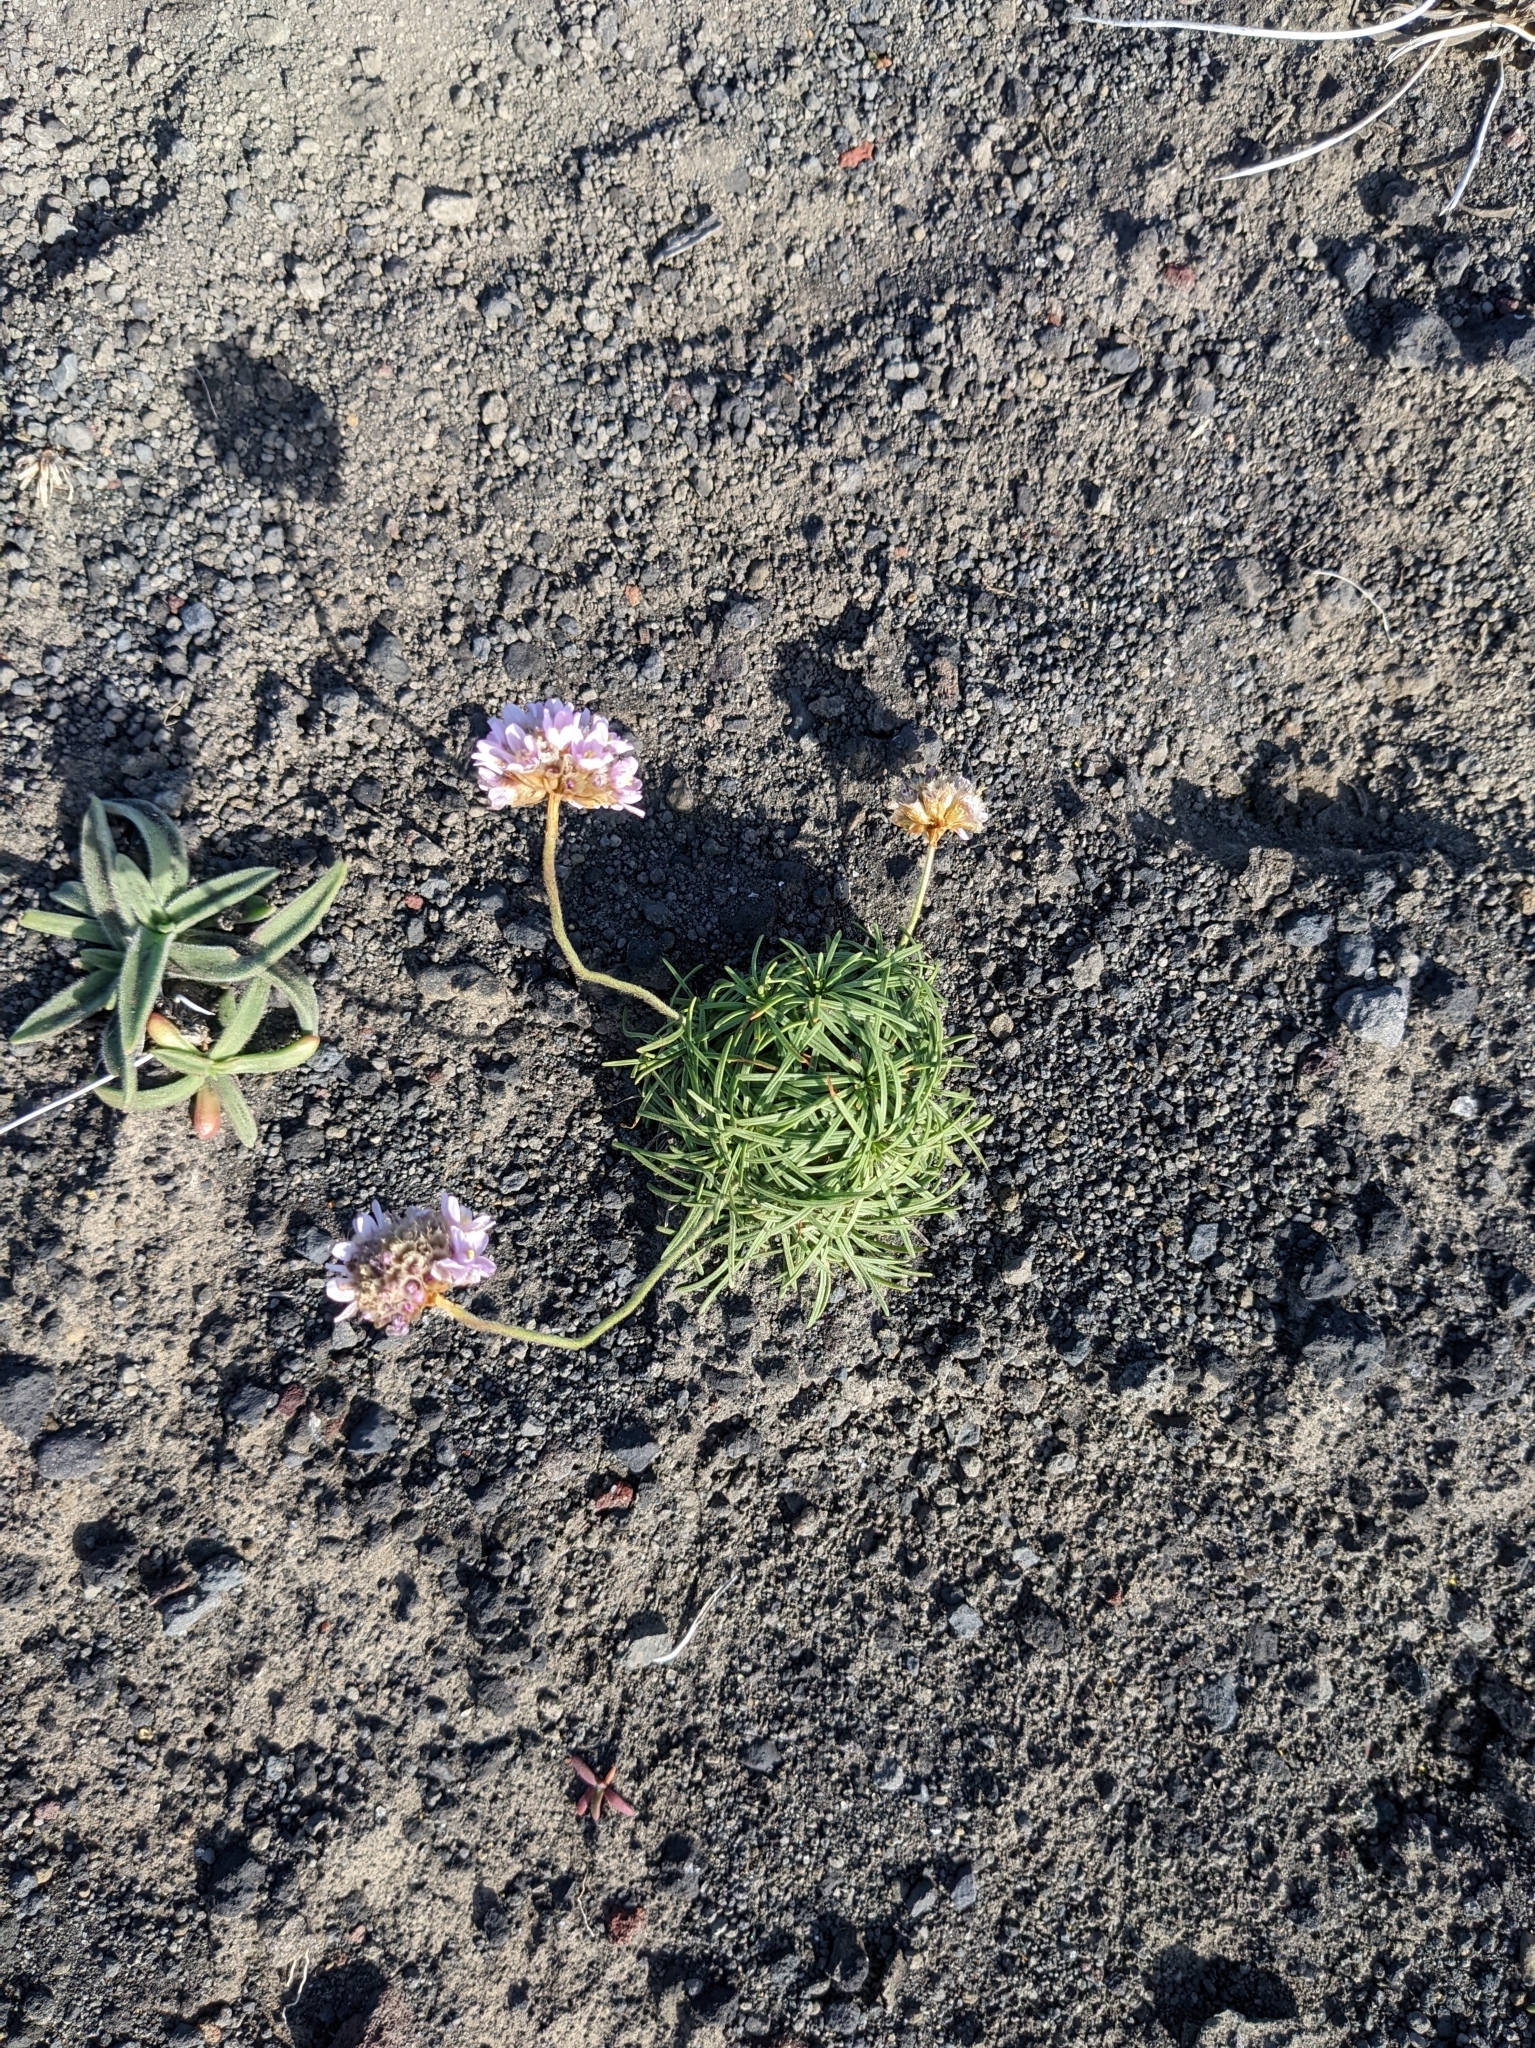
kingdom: Plantae
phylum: Tracheophyta
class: Magnoliopsida
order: Caryophyllales
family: Plumbaginaceae
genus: Armeria
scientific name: Armeria maritima
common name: Thrift
